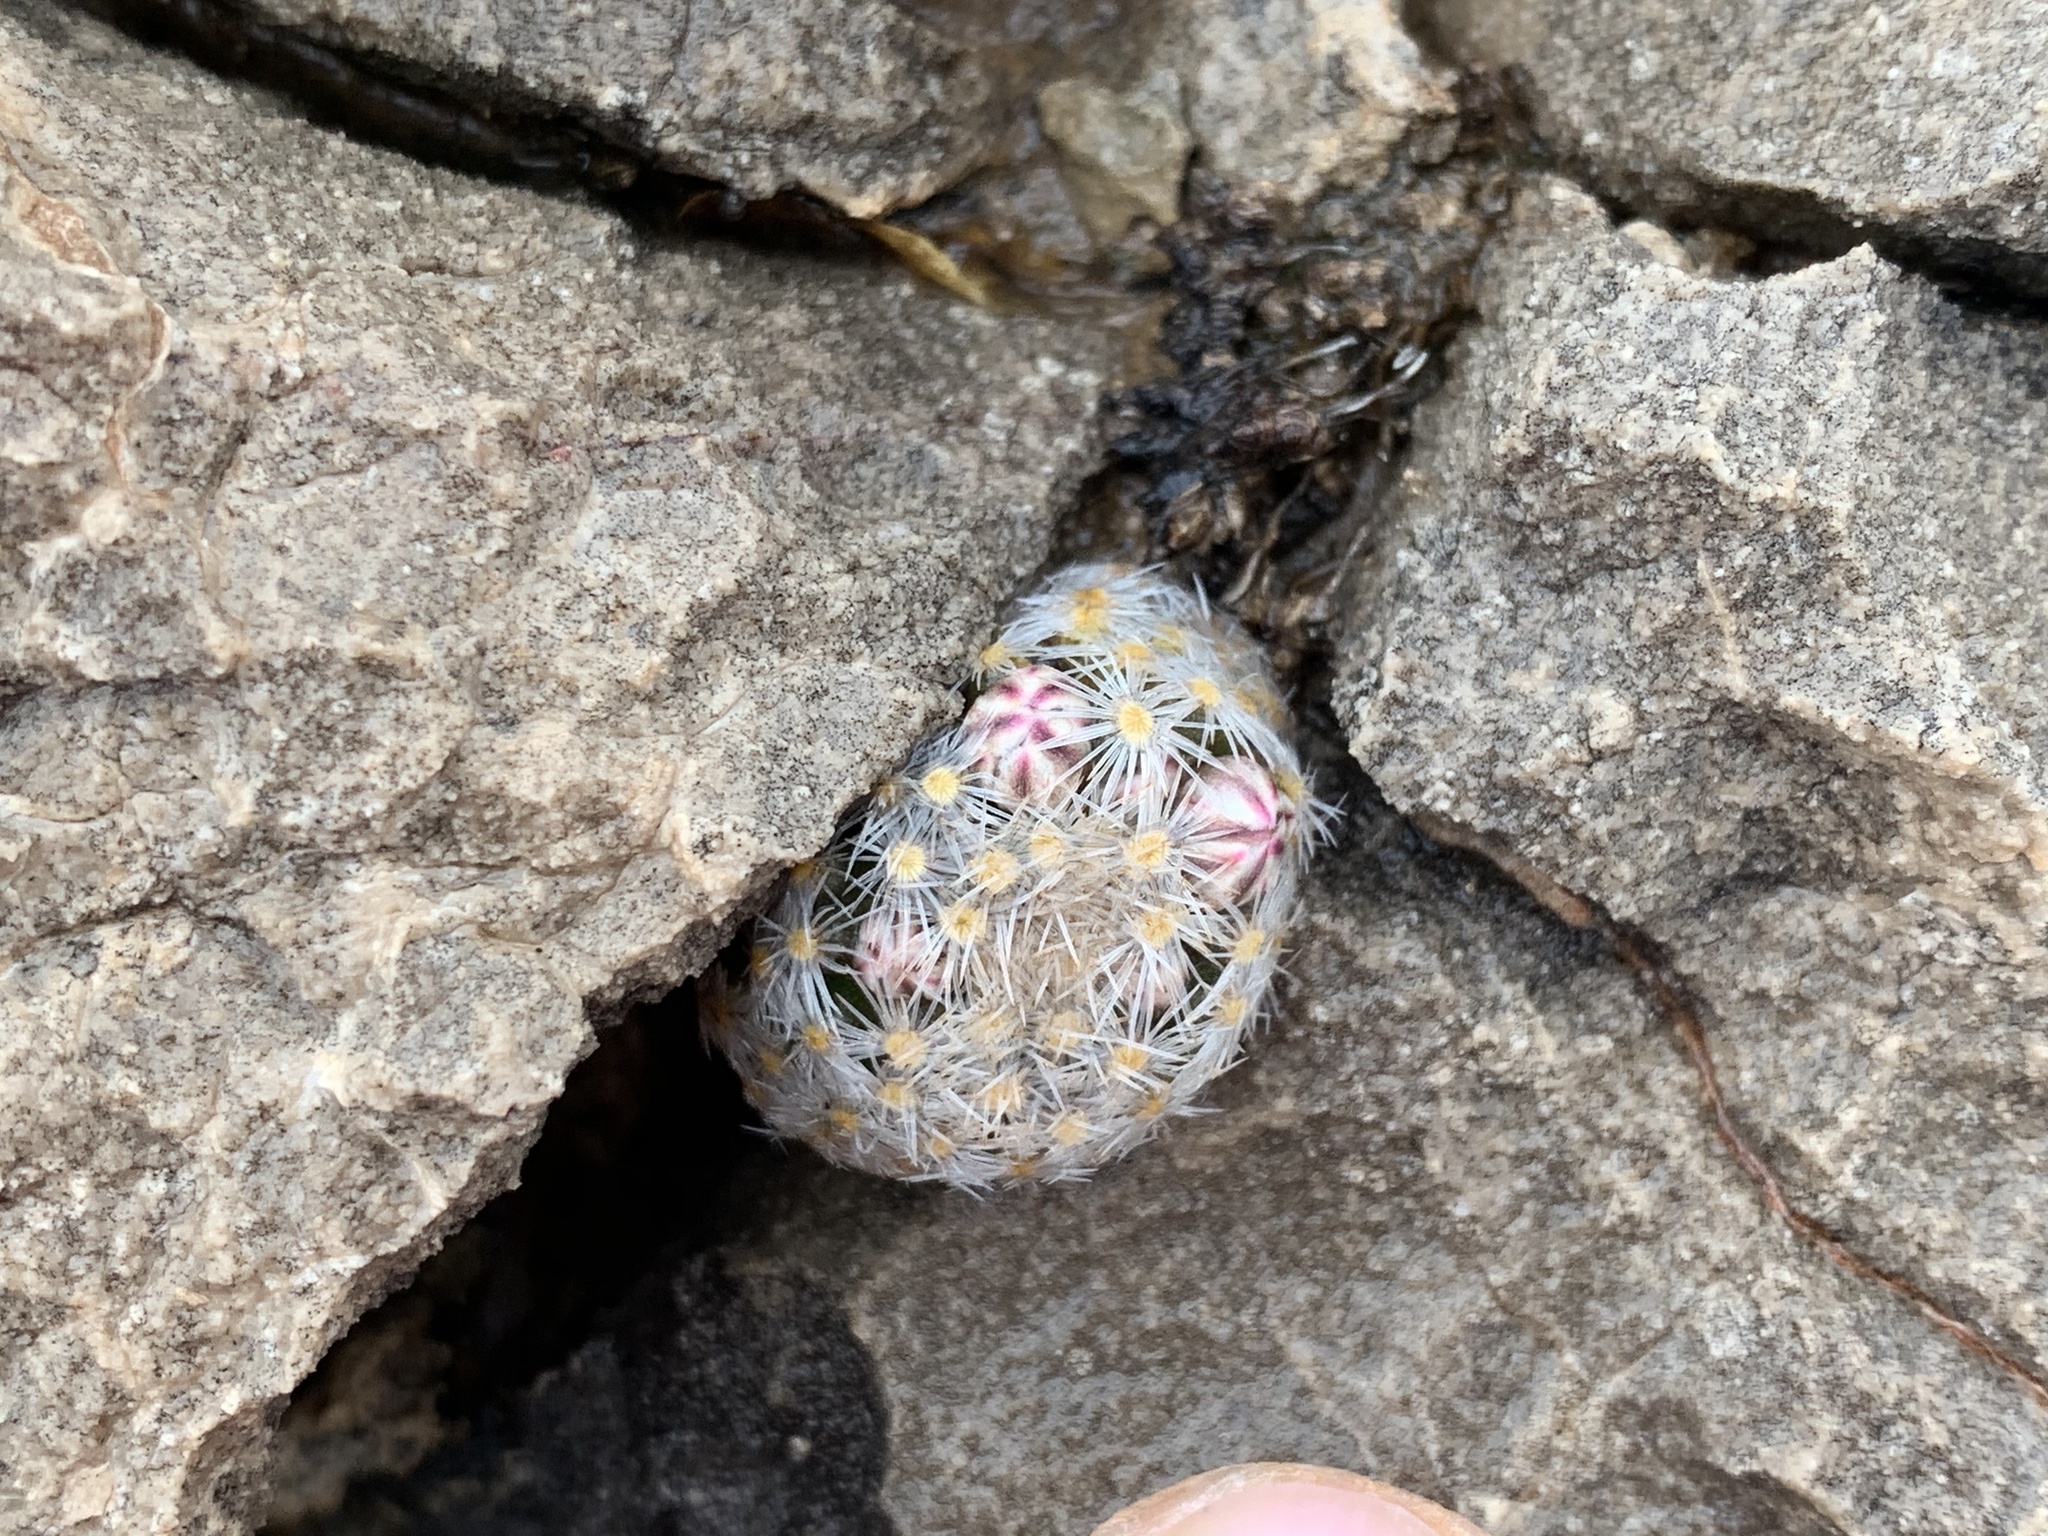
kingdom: Plantae
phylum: Tracheophyta
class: Magnoliopsida
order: Caryophyllales
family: Cactaceae
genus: Mammillaria
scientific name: Mammillaria lasiacantha
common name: Lace-spine nipple cactus
